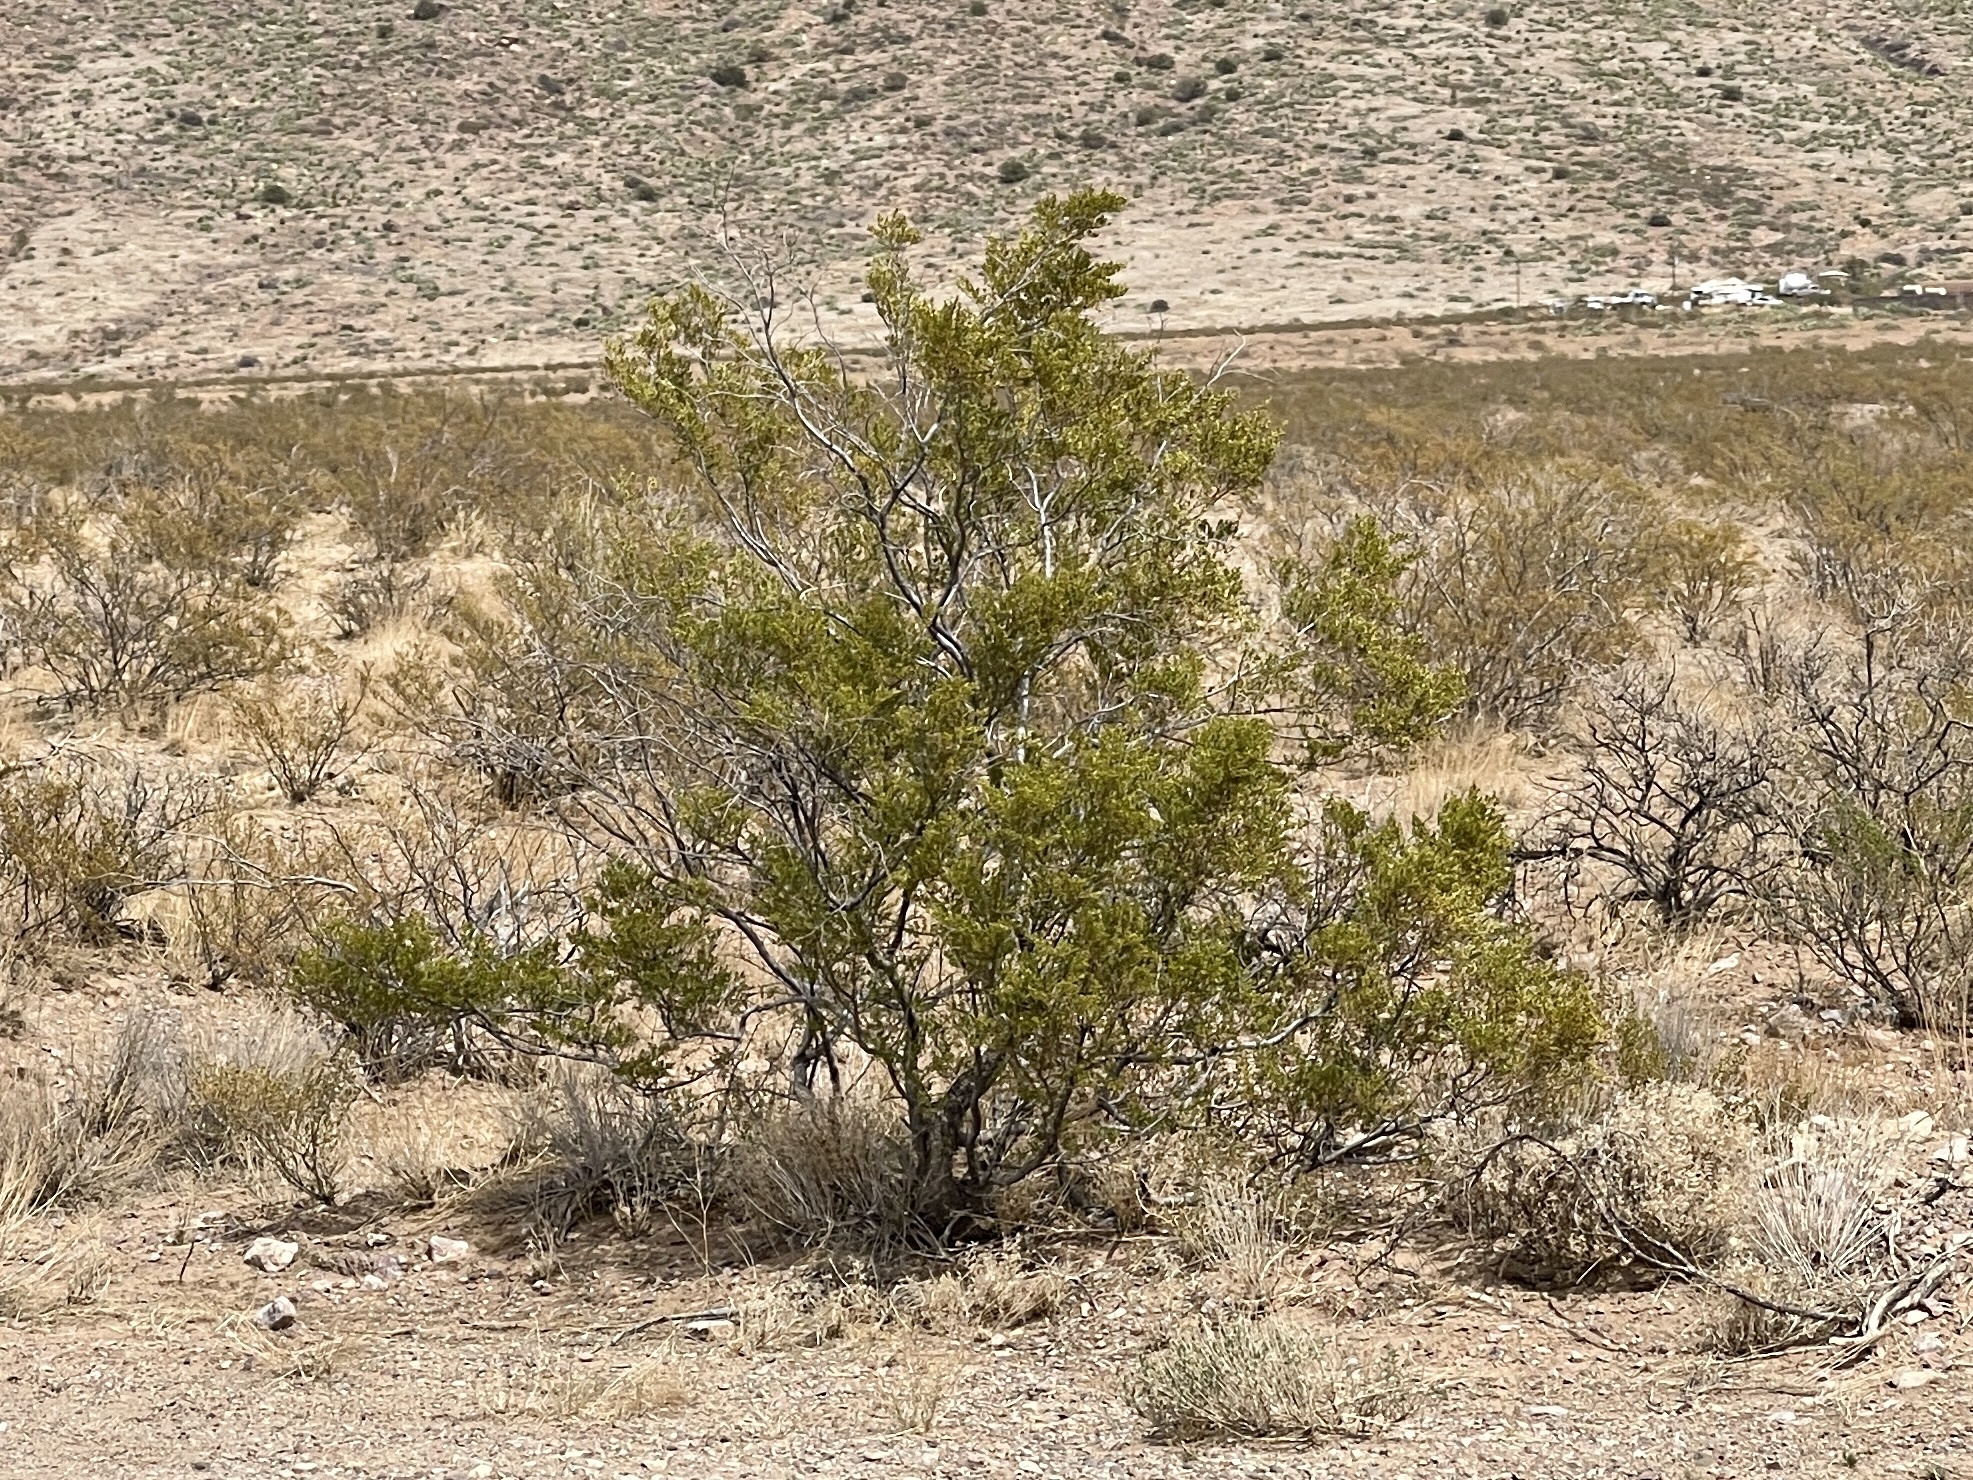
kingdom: Plantae
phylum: Tracheophyta
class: Magnoliopsida
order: Zygophyllales
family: Zygophyllaceae
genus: Larrea
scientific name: Larrea tridentata
